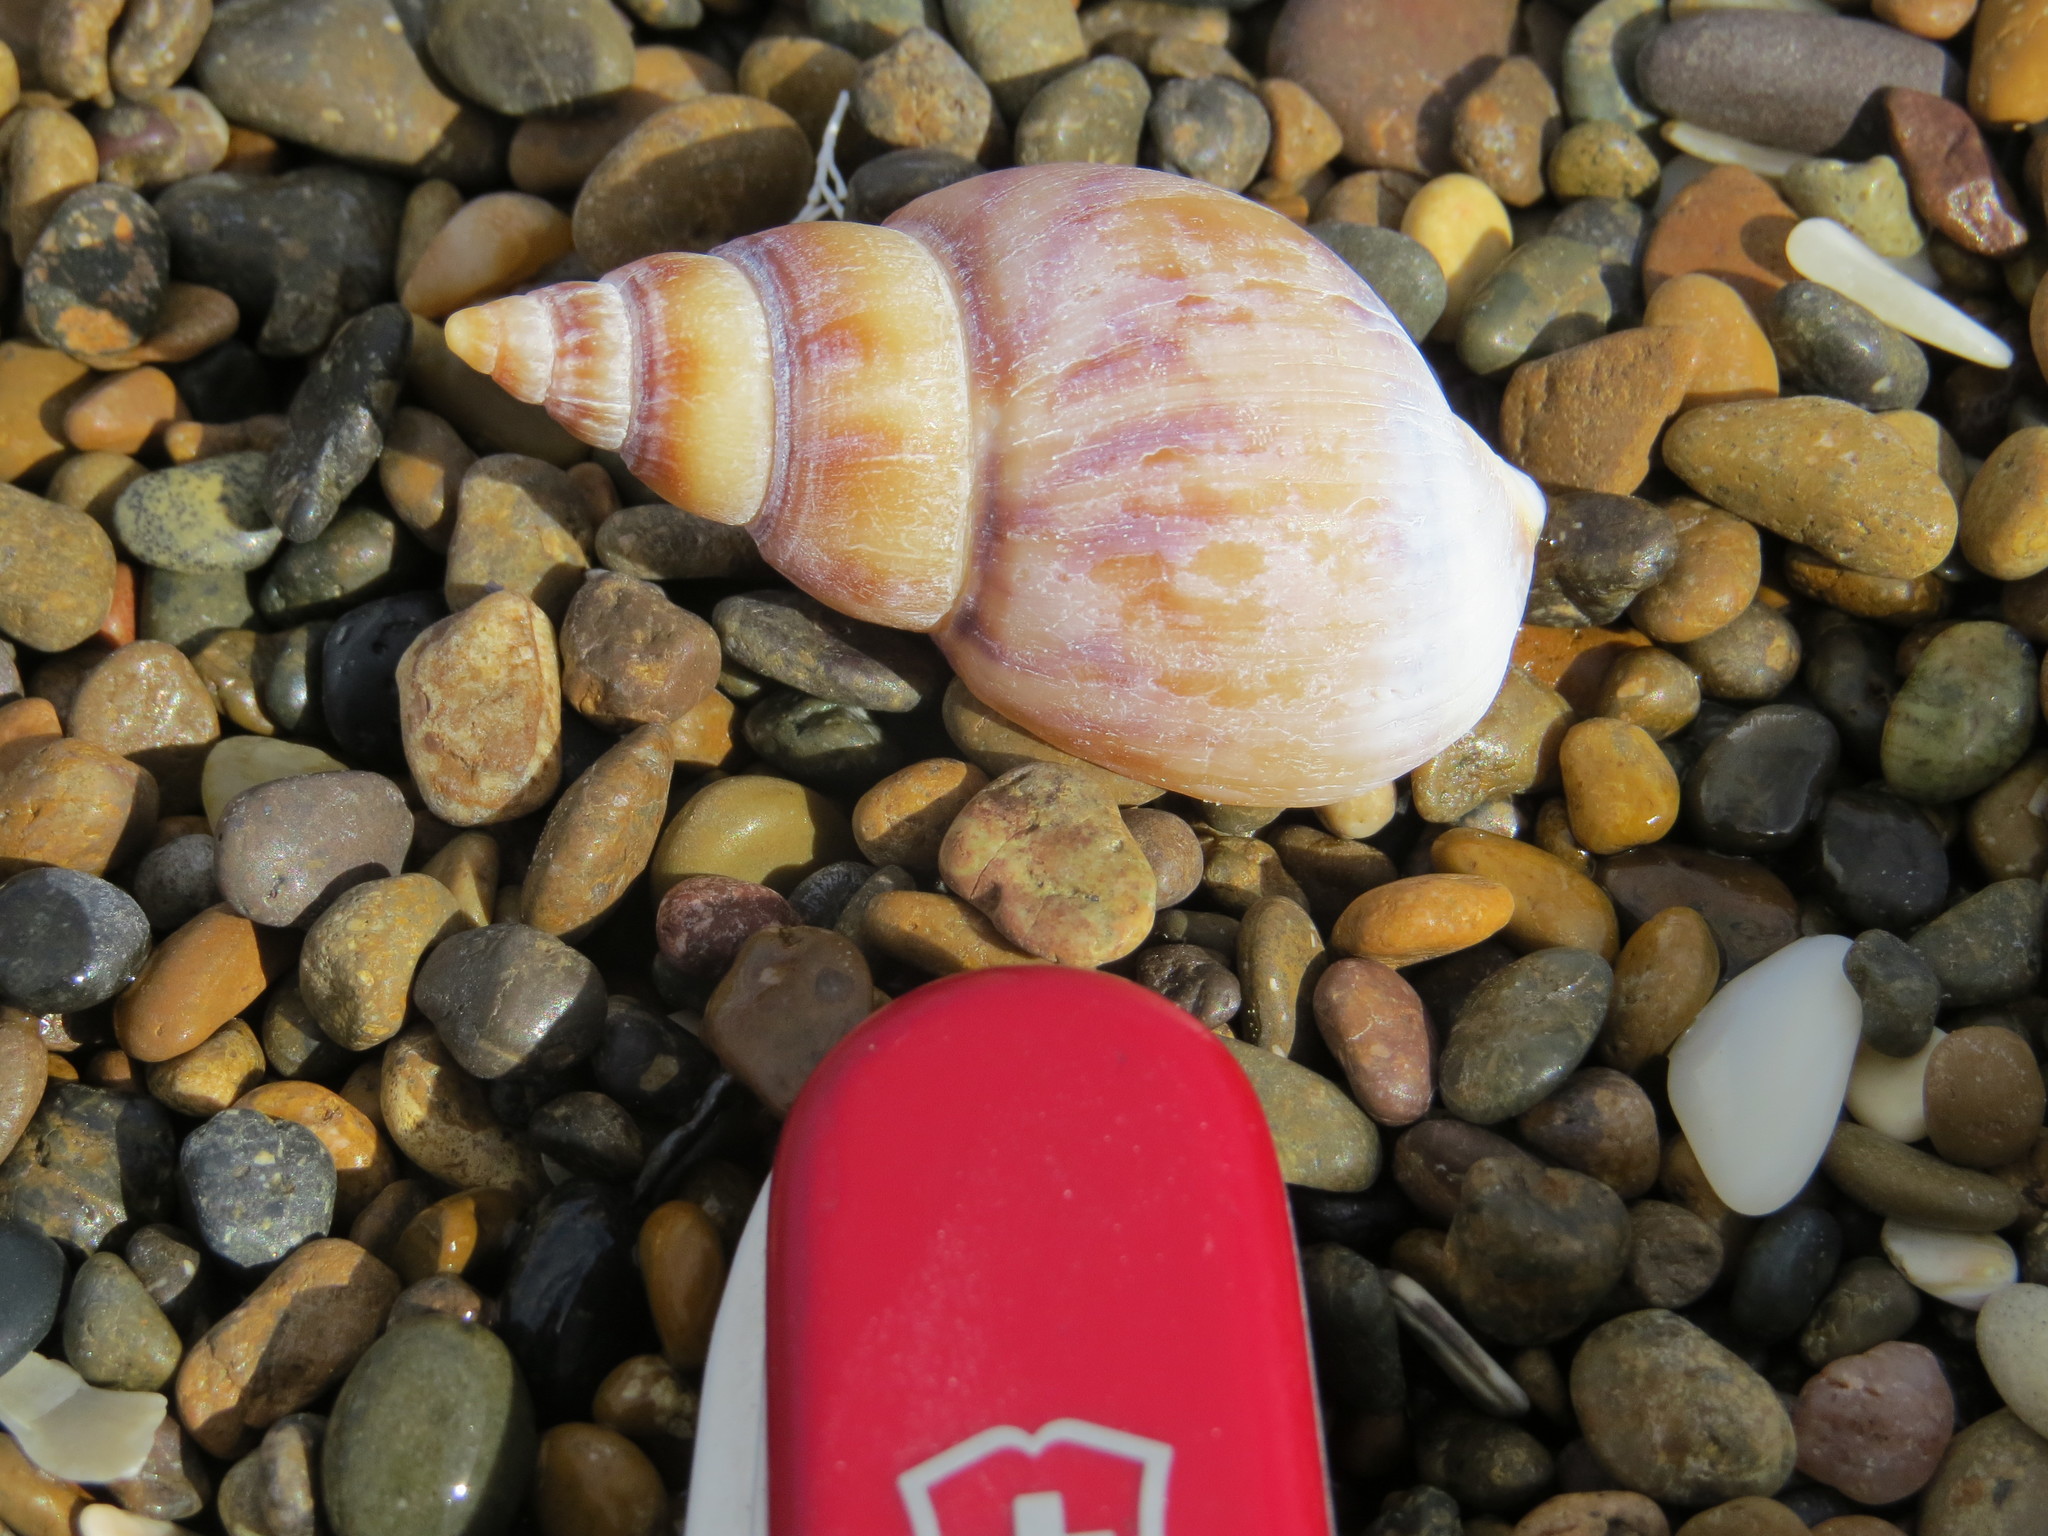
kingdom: Animalia
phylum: Mollusca
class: Gastropoda
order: Neogastropoda
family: Buccinanopsidae
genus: Buccinanops
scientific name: Buccinanops cochlidium
